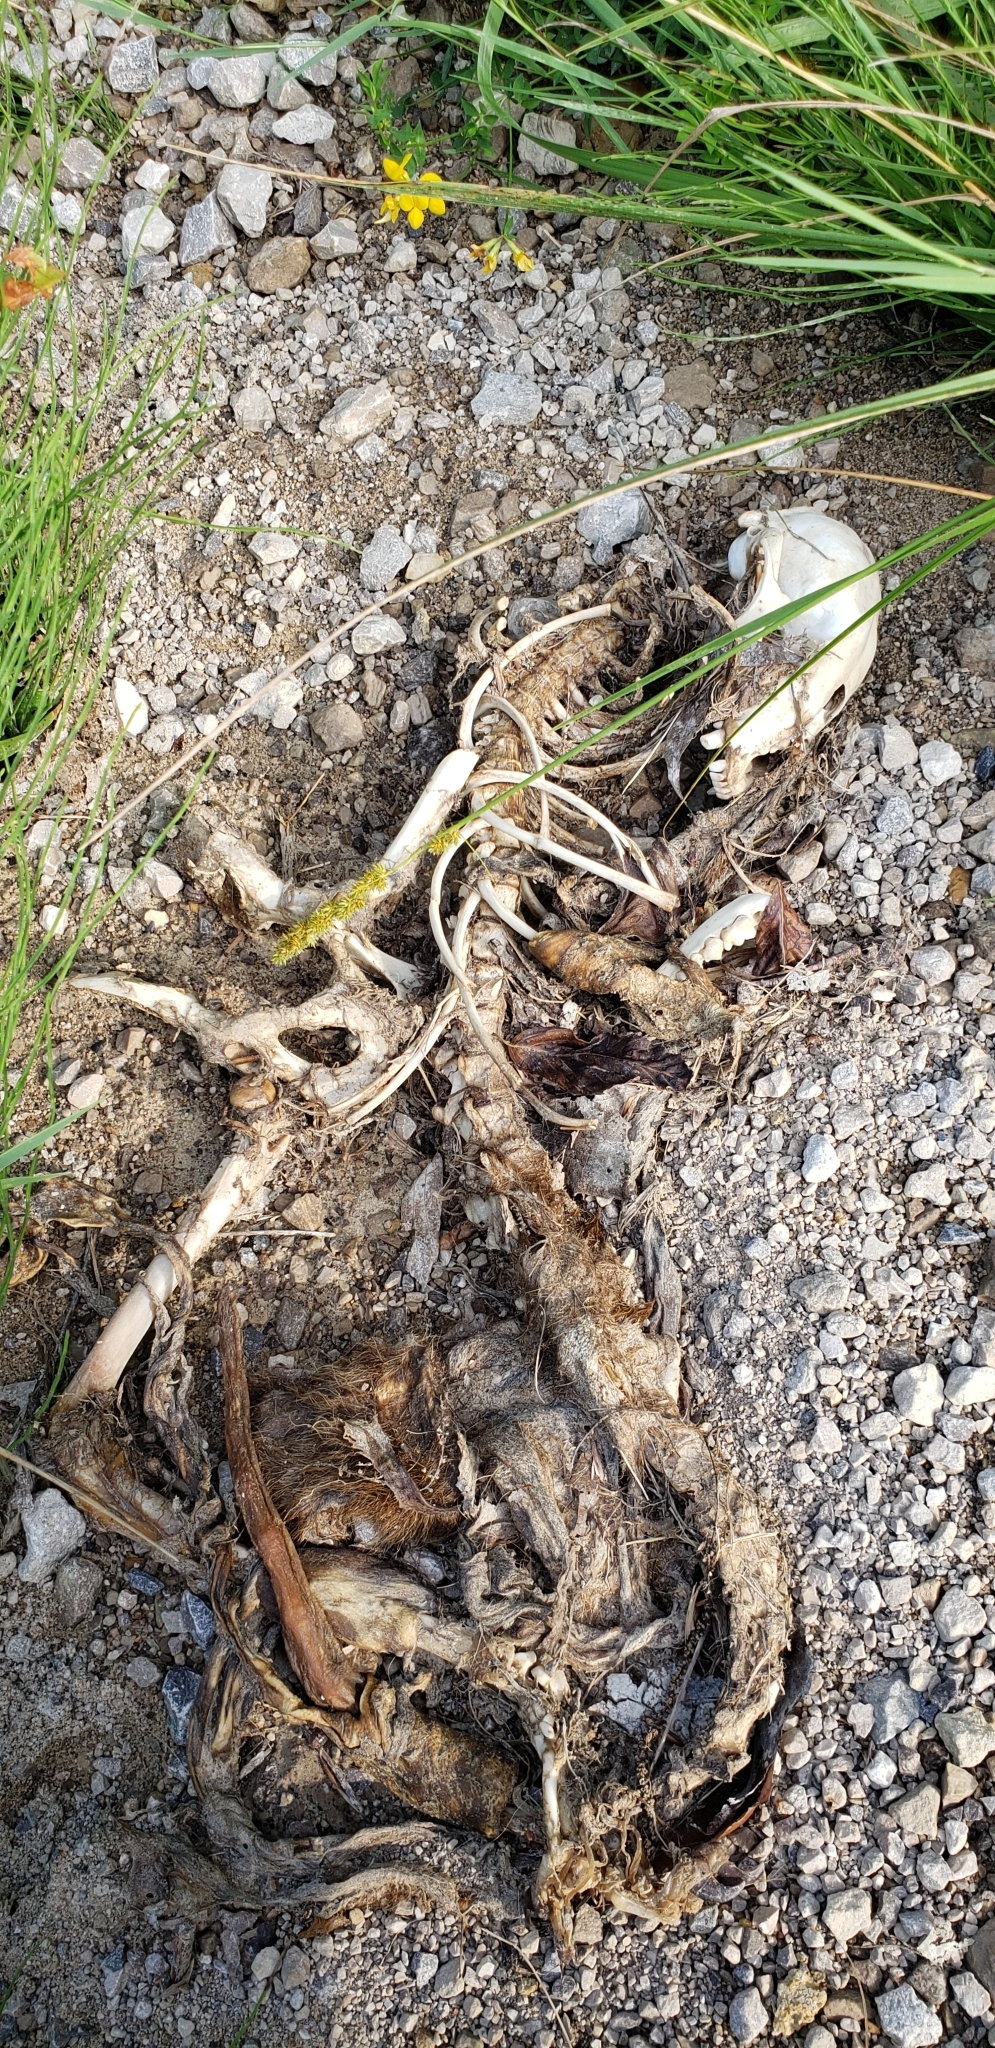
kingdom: Animalia
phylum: Chordata
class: Mammalia
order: Carnivora
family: Procyonidae
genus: Procyon
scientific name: Procyon lotor
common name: Raccoon
